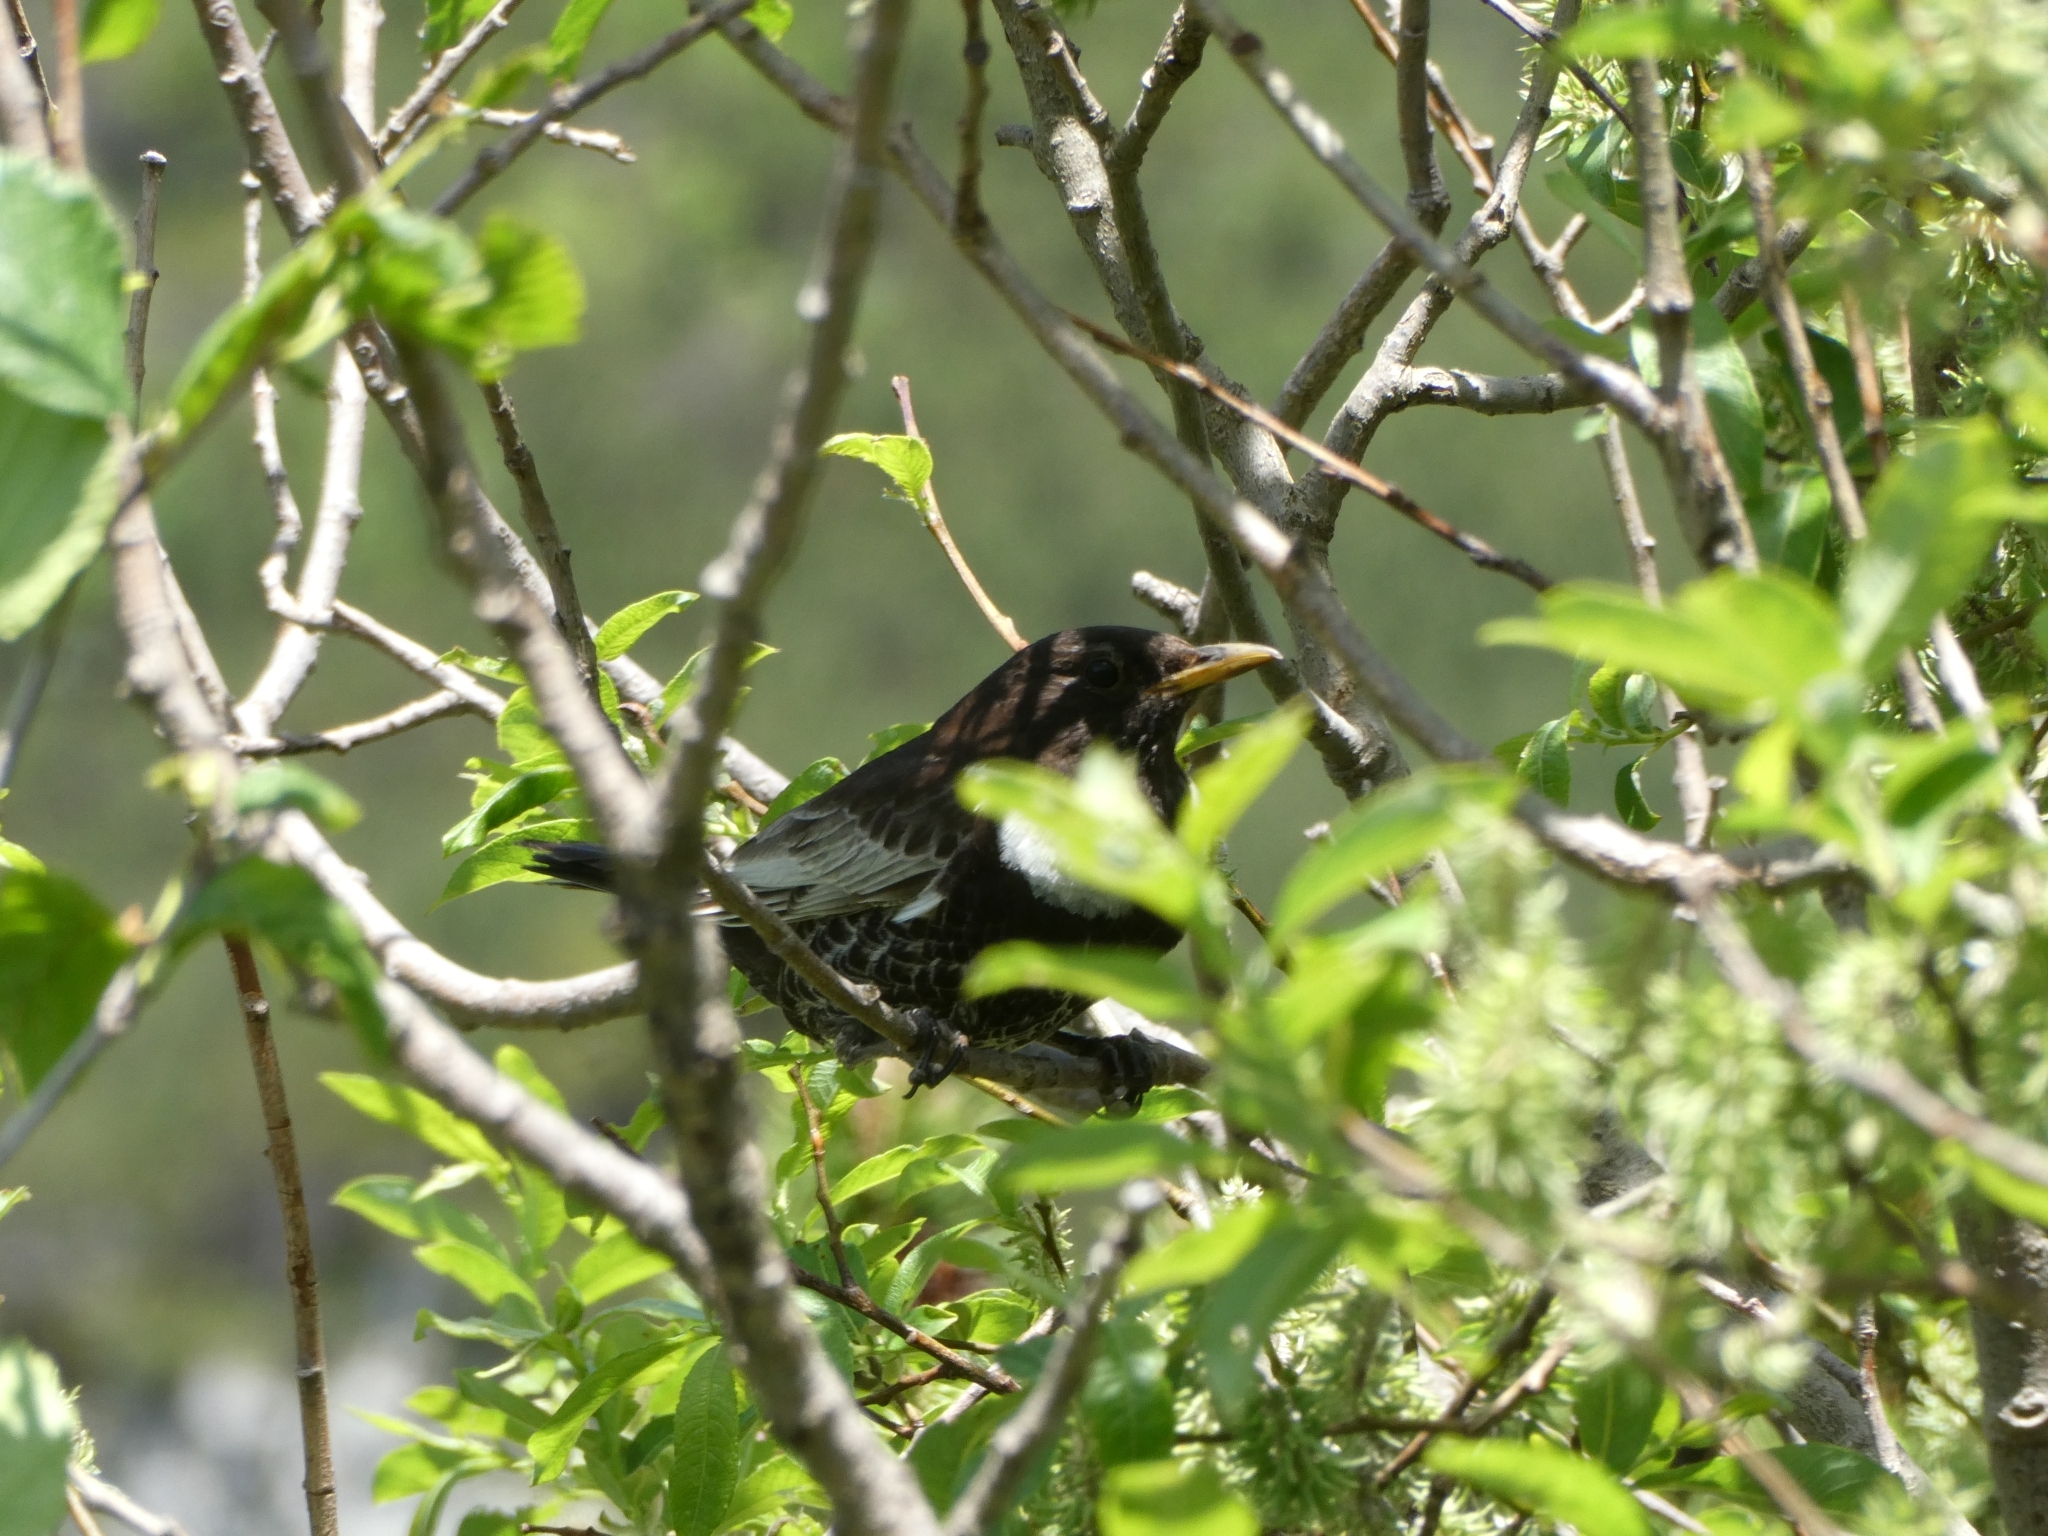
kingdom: Animalia
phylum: Chordata
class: Aves
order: Passeriformes
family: Turdidae
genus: Turdus
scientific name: Turdus torquatus
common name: Ring ouzel
